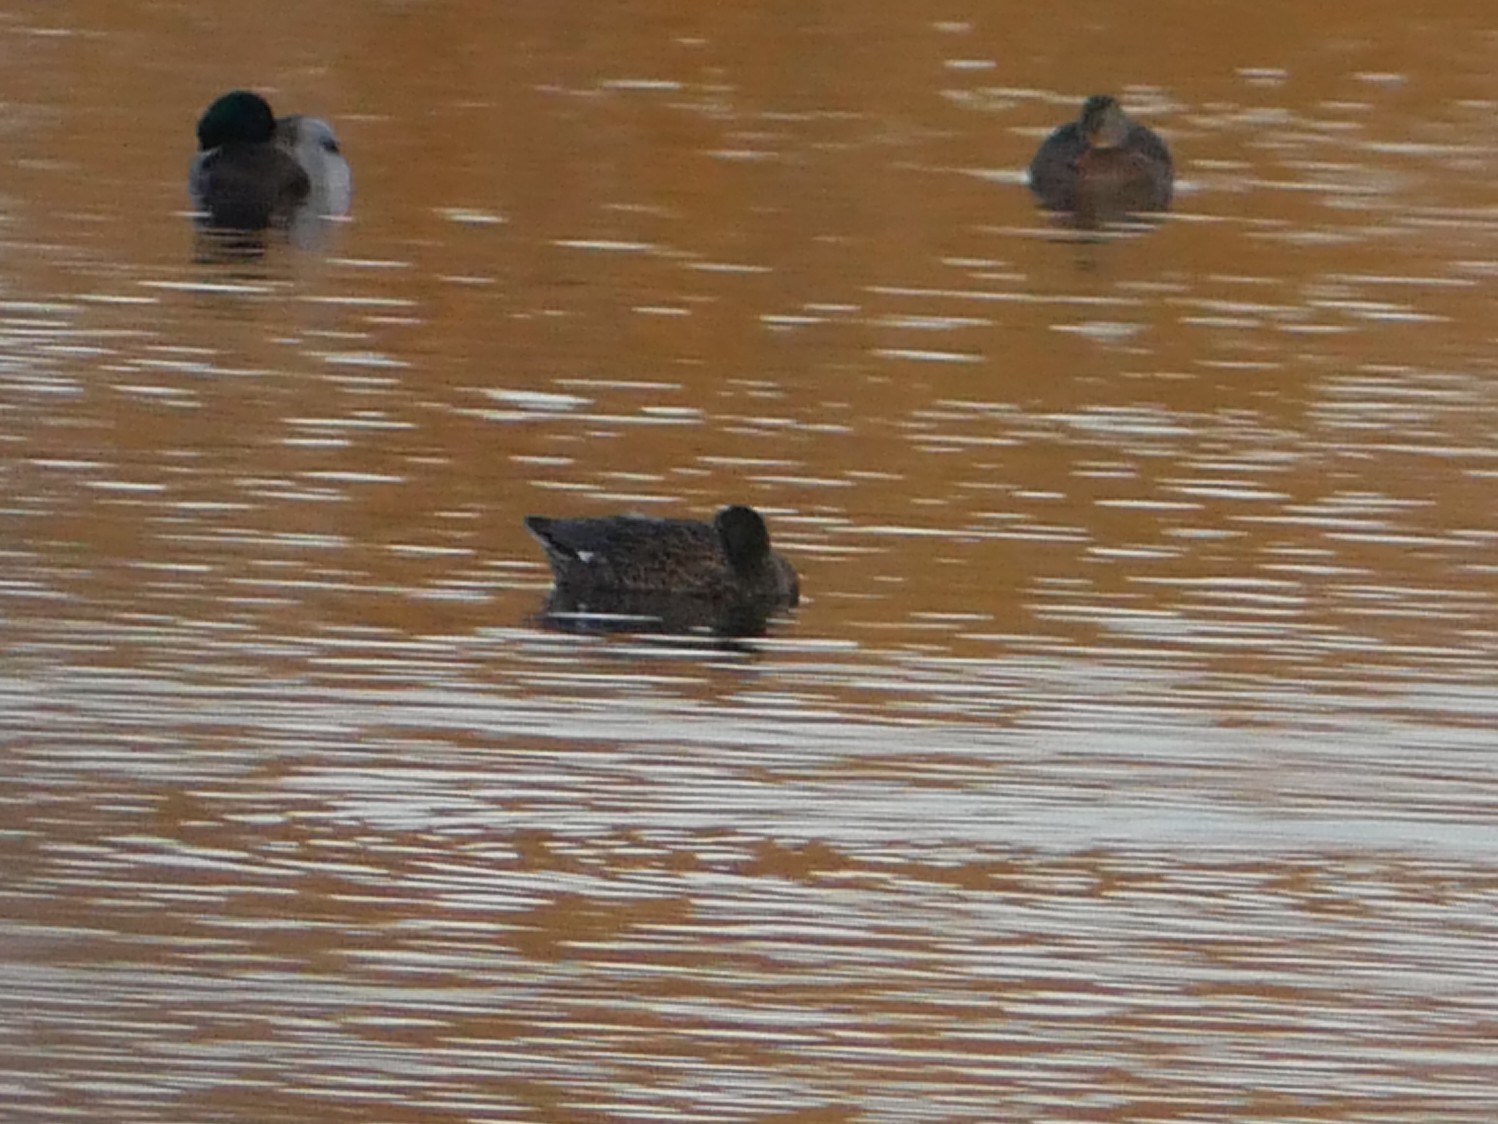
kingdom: Animalia
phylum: Chordata
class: Aves
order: Anseriformes
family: Anatidae
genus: Mareca
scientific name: Mareca strepera
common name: Gadwall
